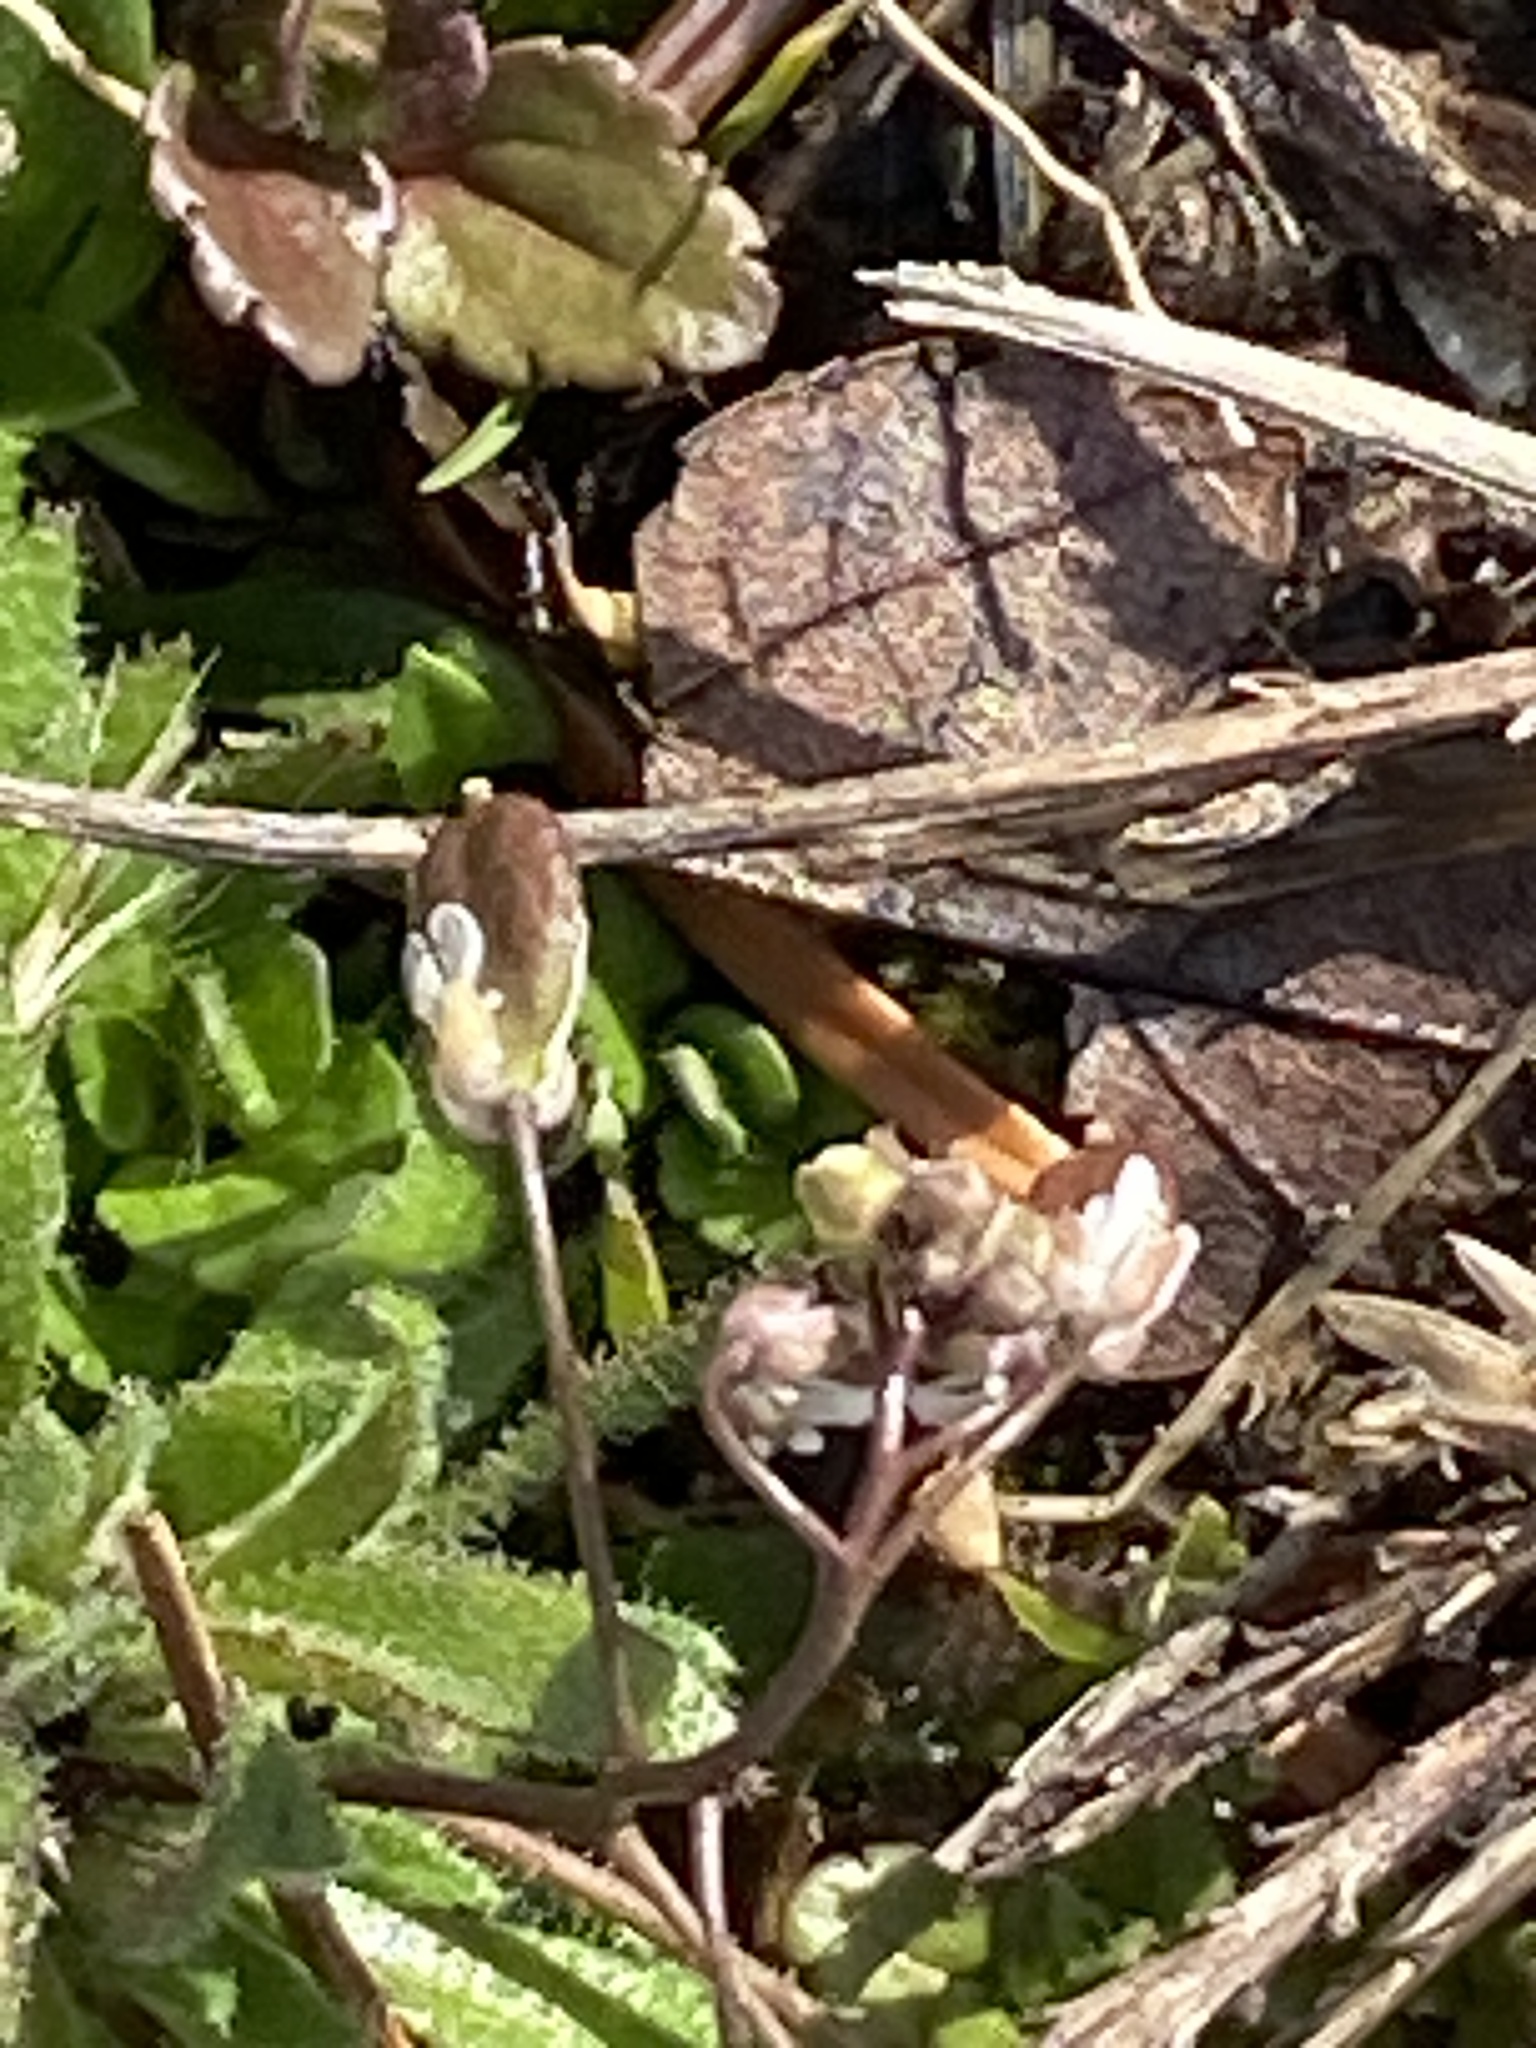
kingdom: Plantae
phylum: Tracheophyta
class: Magnoliopsida
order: Brassicales
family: Brassicaceae
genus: Draba
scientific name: Draba verna
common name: Spring draba
